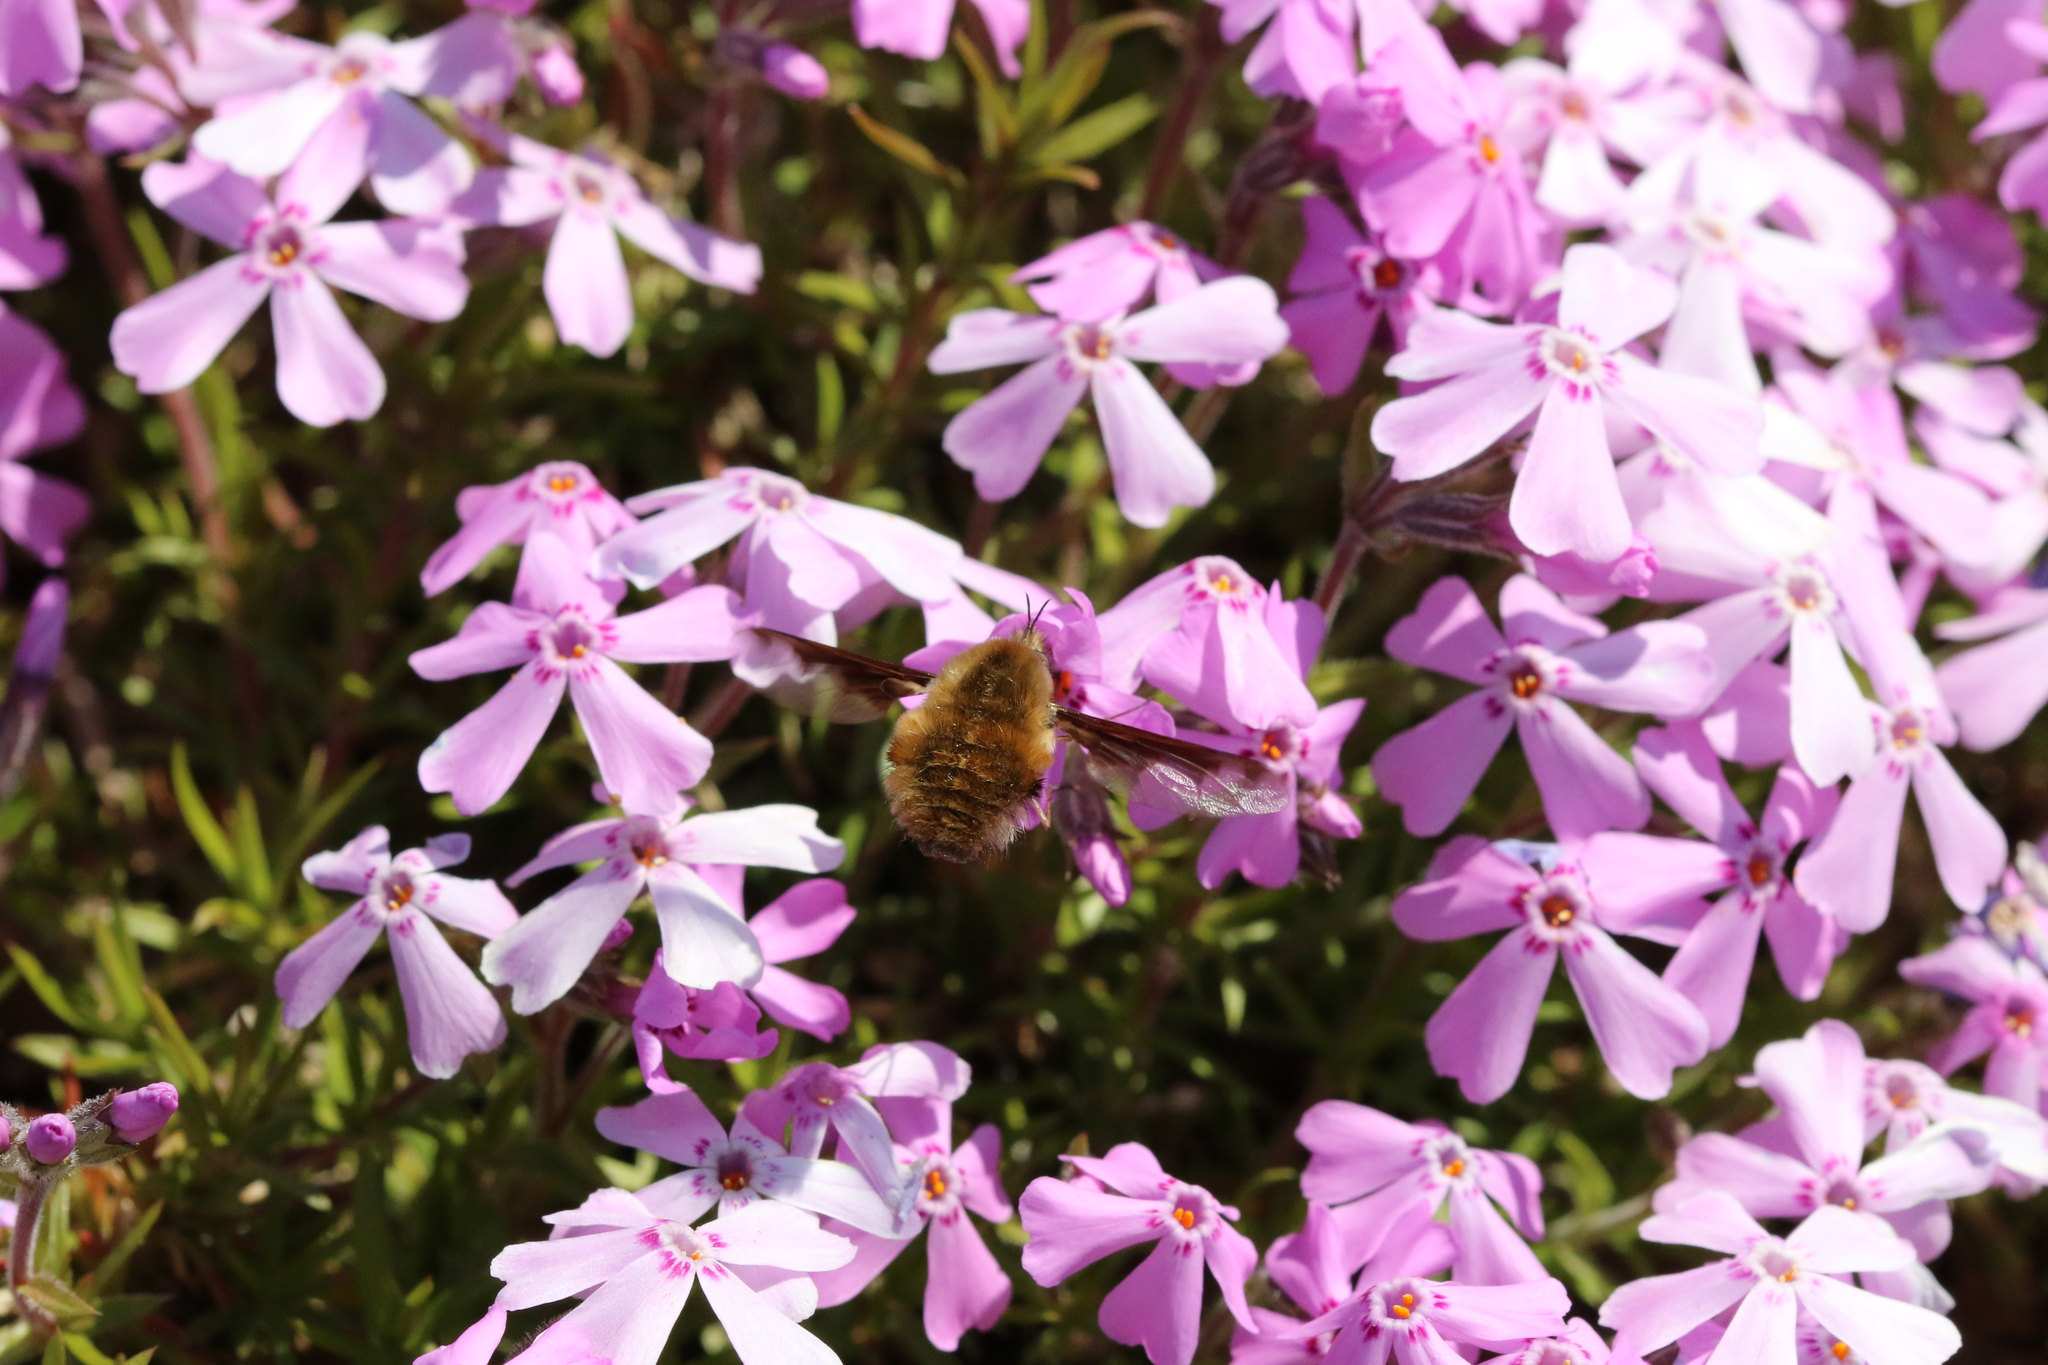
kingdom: Animalia
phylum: Arthropoda
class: Insecta
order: Diptera
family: Bombyliidae
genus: Bombylius
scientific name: Bombylius major
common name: Bee fly
